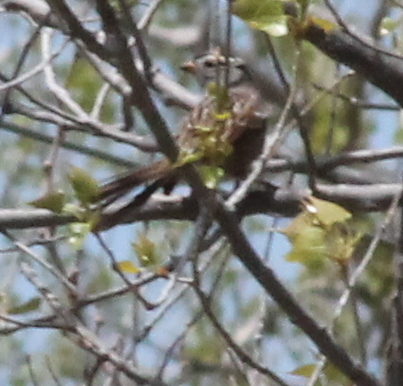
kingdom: Animalia
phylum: Chordata
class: Aves
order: Passeriformes
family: Passerellidae
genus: Zonotrichia
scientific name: Zonotrichia leucophrys
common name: White-crowned sparrow
